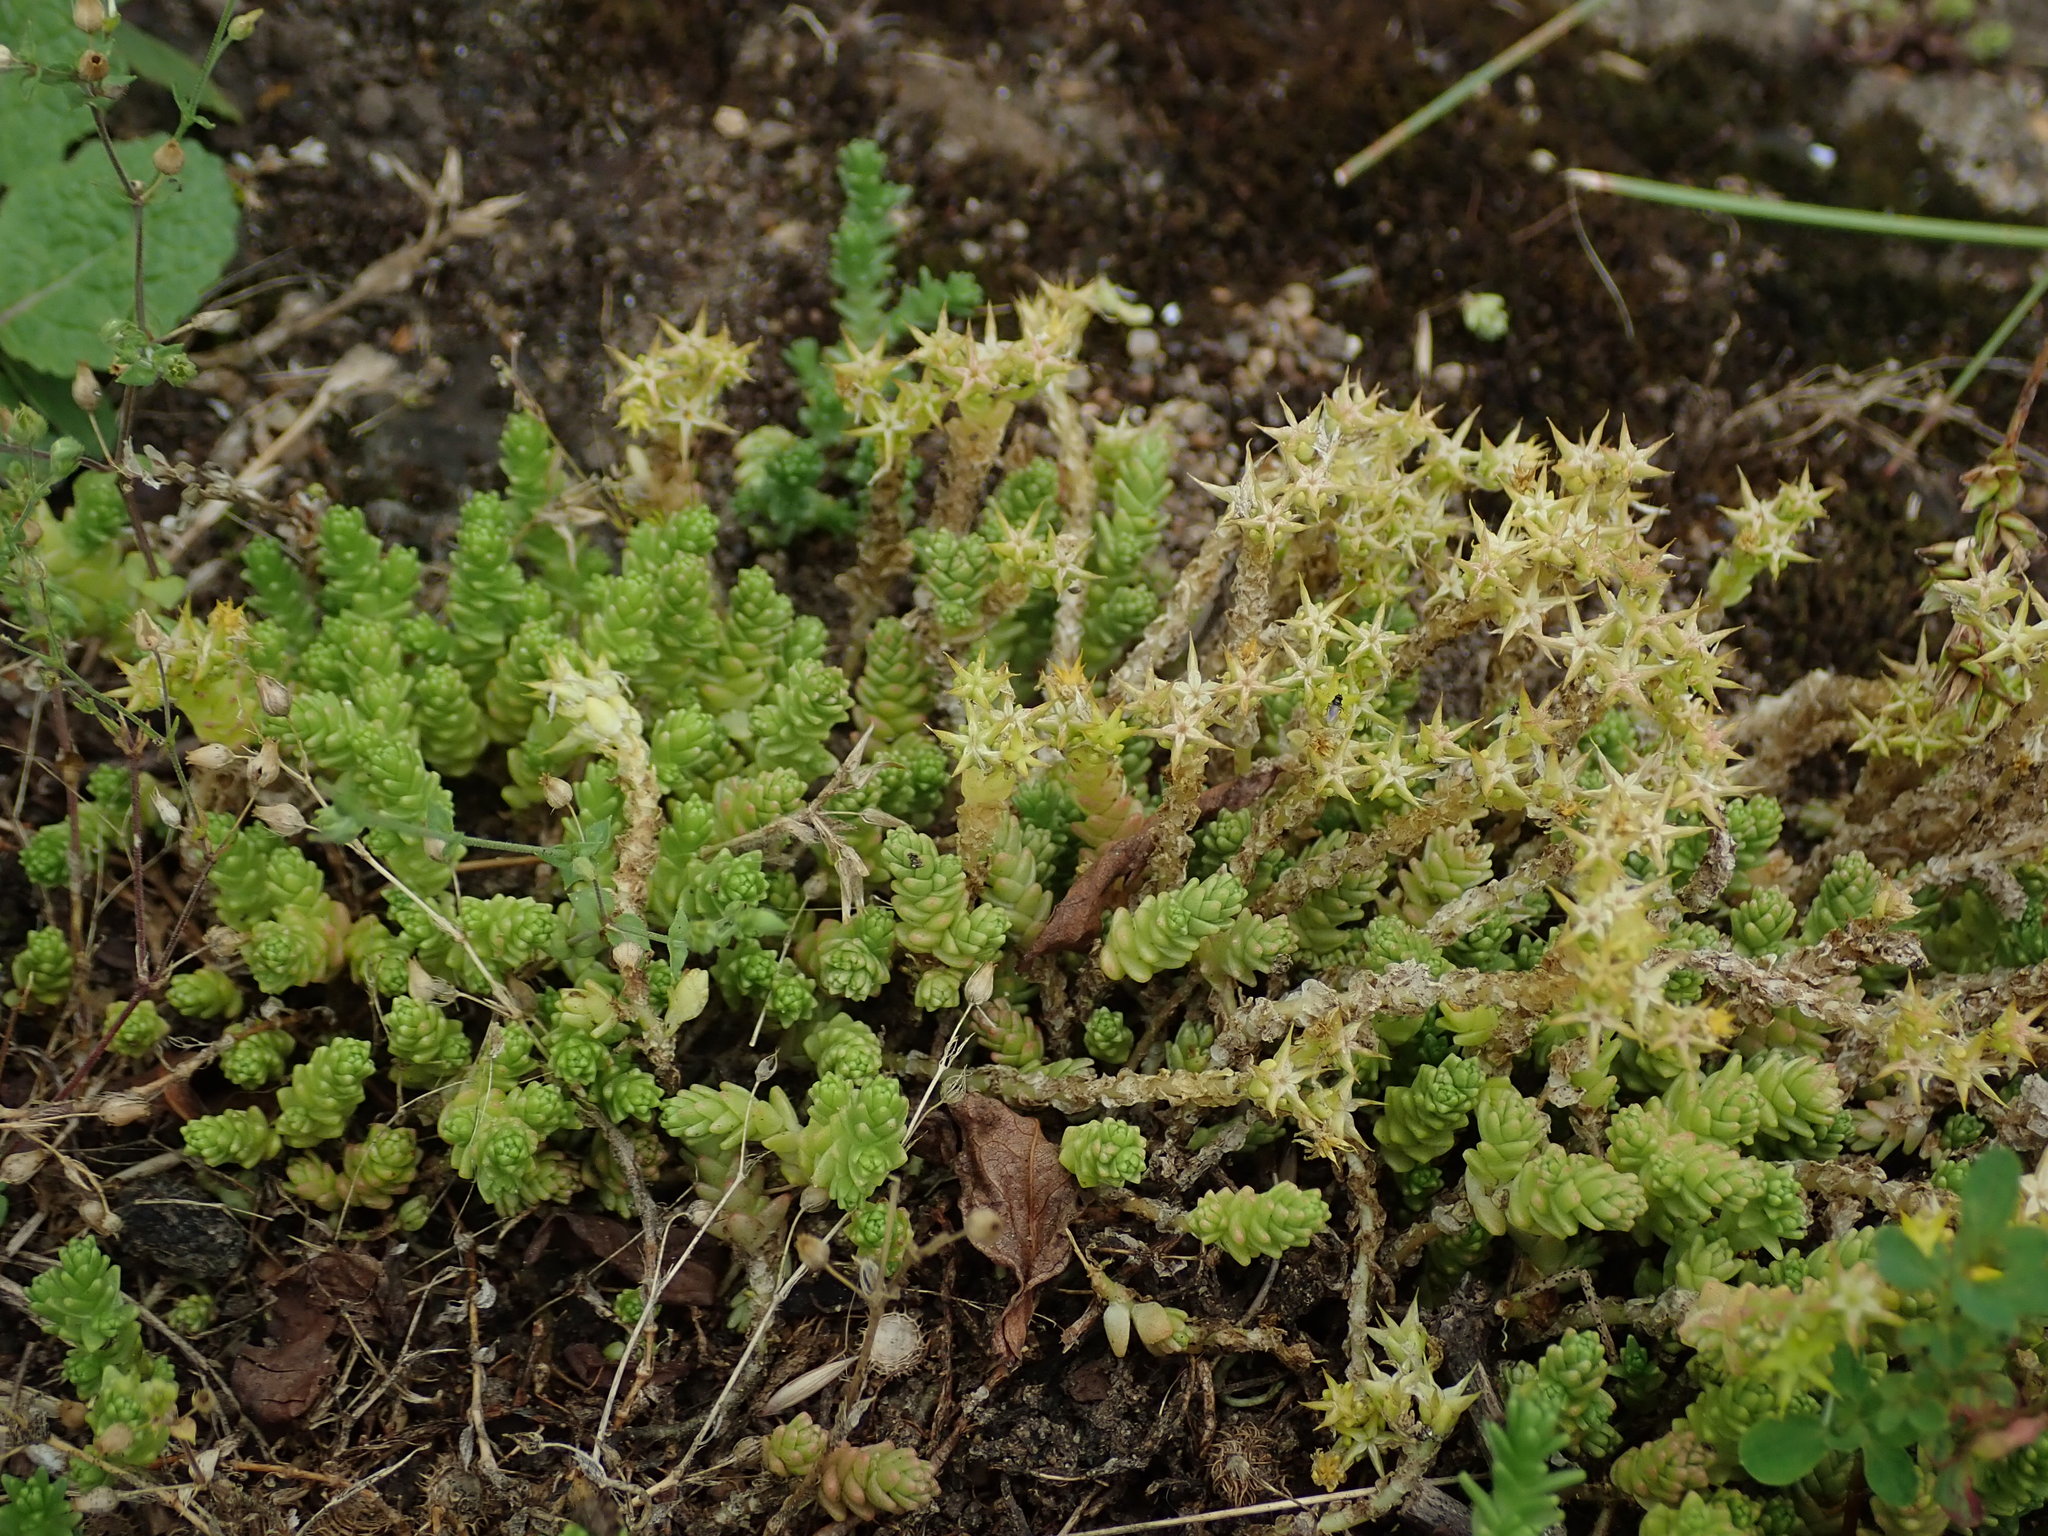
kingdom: Plantae
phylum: Tracheophyta
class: Magnoliopsida
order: Saxifragales
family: Crassulaceae
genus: Sedum
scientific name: Sedum acre
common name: Biting stonecrop
